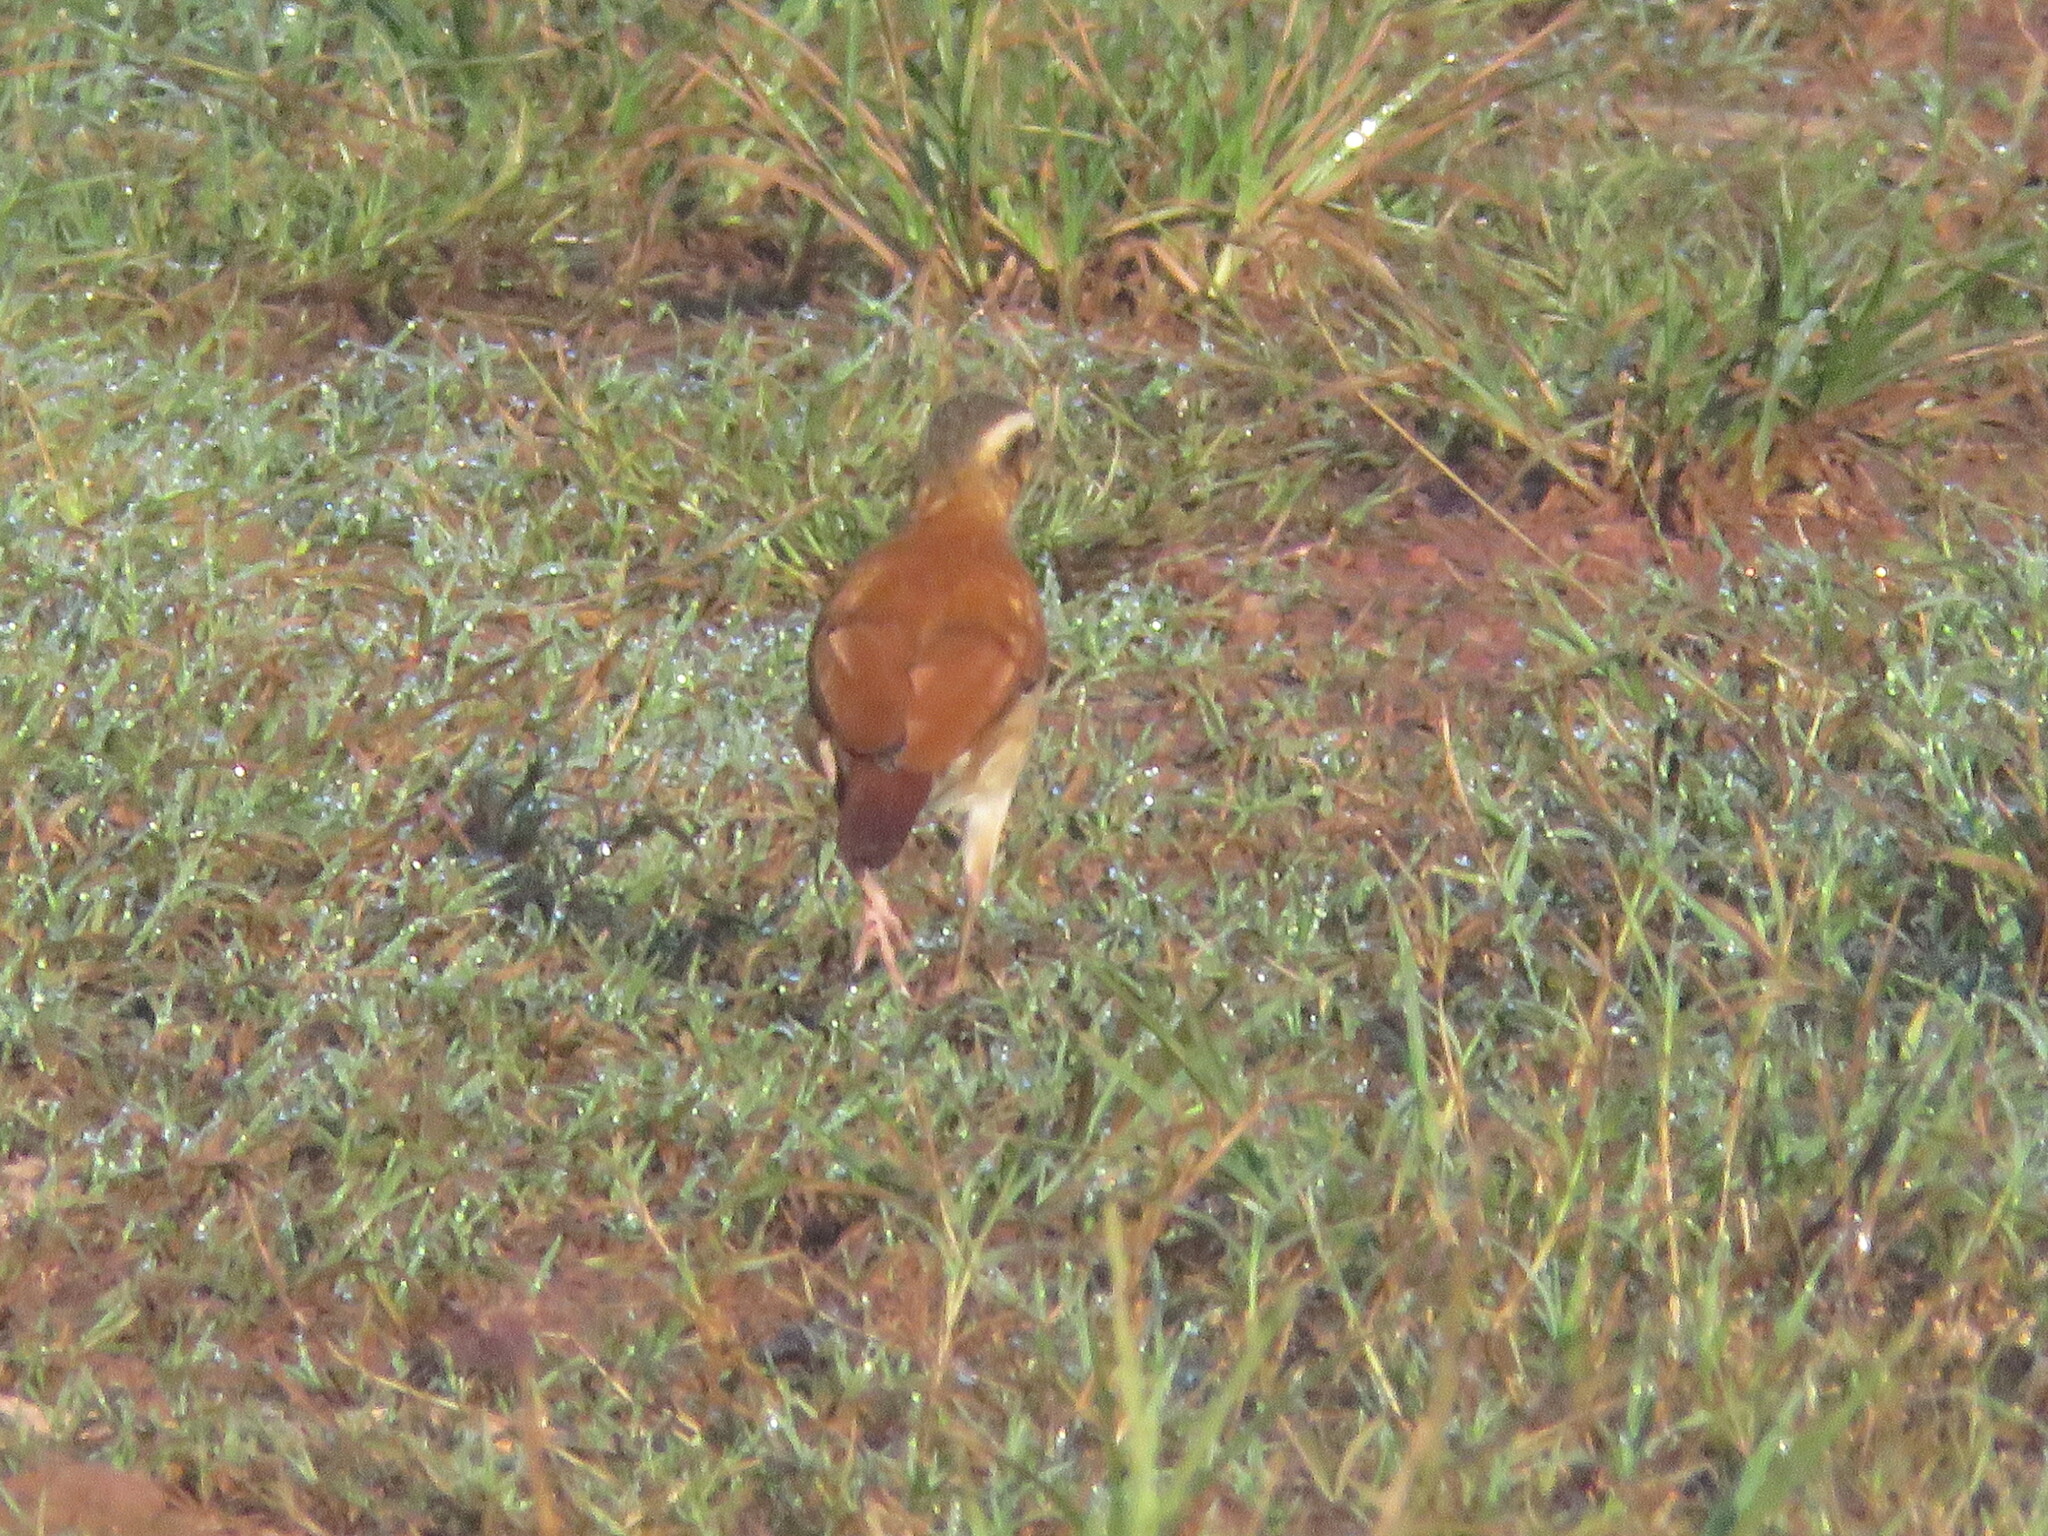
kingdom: Animalia
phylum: Chordata
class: Aves
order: Passeriformes
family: Furnariidae
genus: Furnarius
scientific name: Furnarius leucopus
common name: Pale-legged hornero
